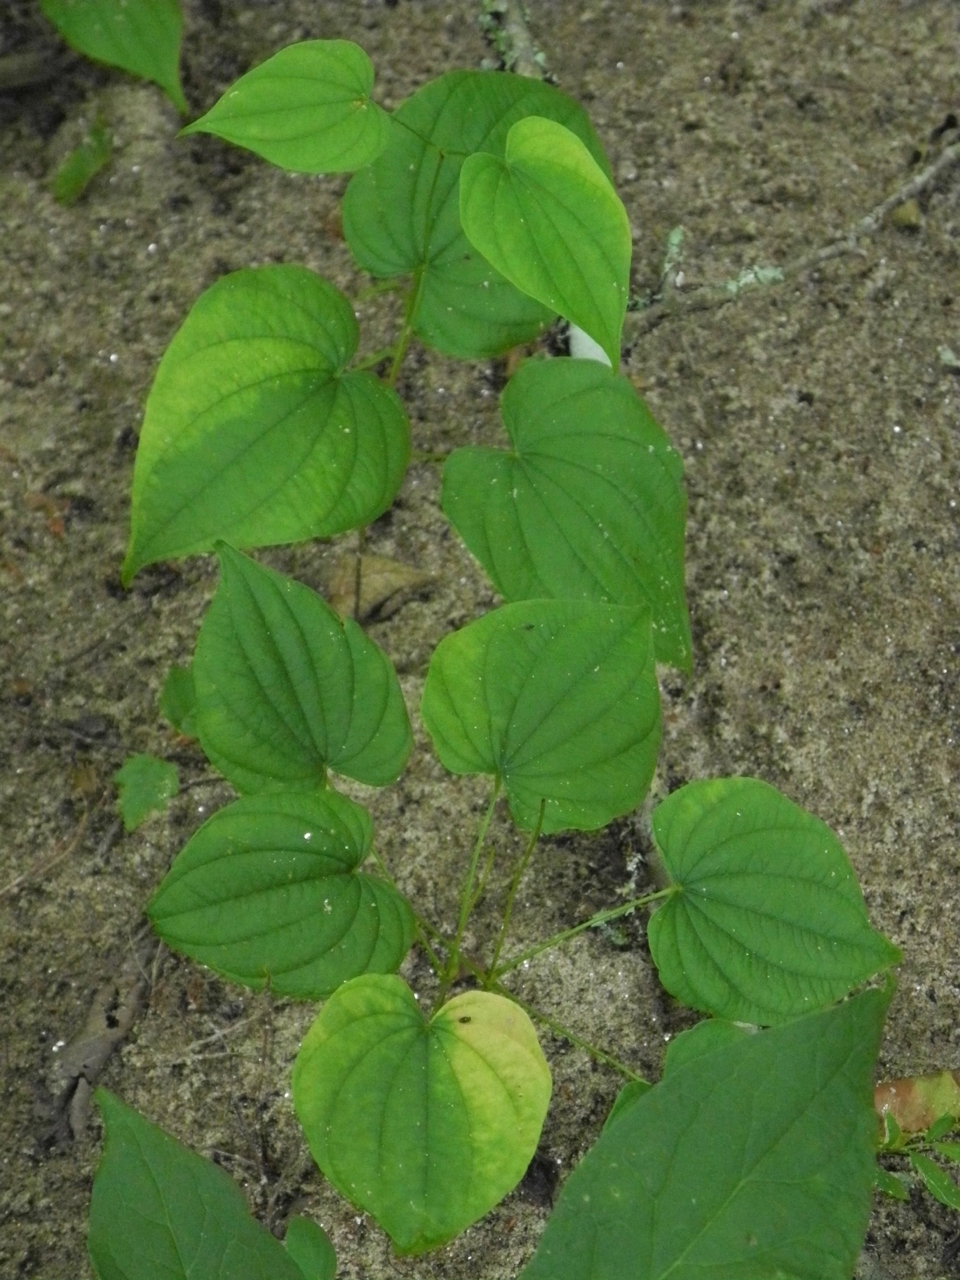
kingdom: Plantae
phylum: Tracheophyta
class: Liliopsida
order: Dioscoreales
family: Dioscoreaceae
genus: Dioscorea
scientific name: Dioscorea villosa
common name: Wild yam
